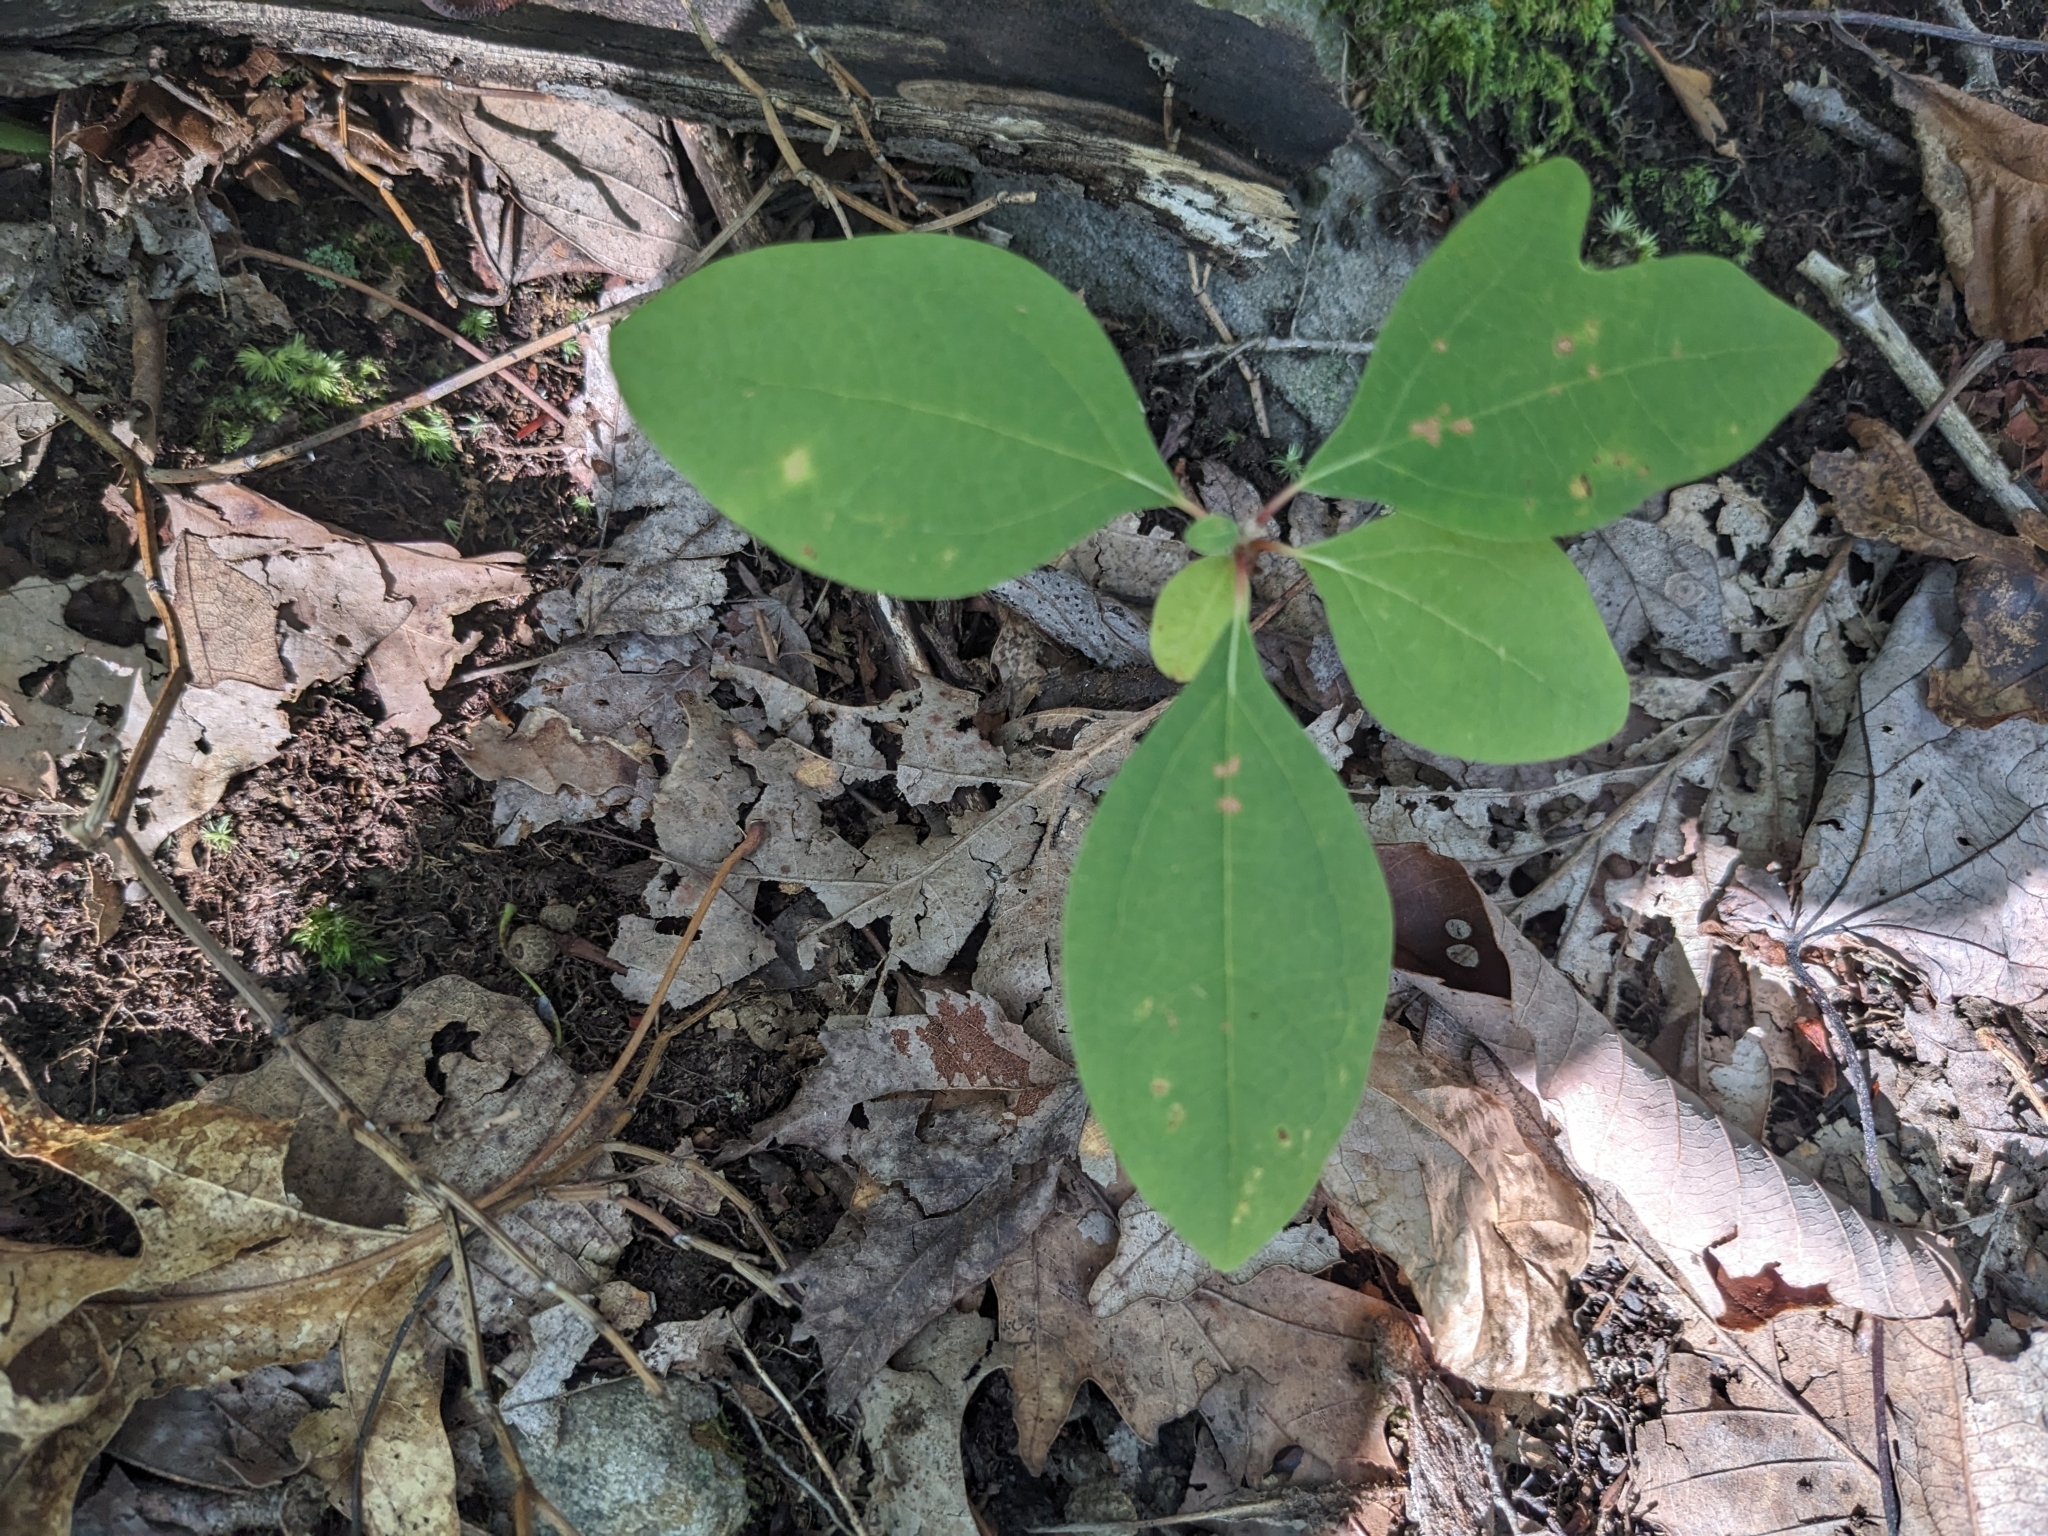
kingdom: Plantae
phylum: Tracheophyta
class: Magnoliopsida
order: Laurales
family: Lauraceae
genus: Sassafras
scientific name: Sassafras albidum
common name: Sassafras
